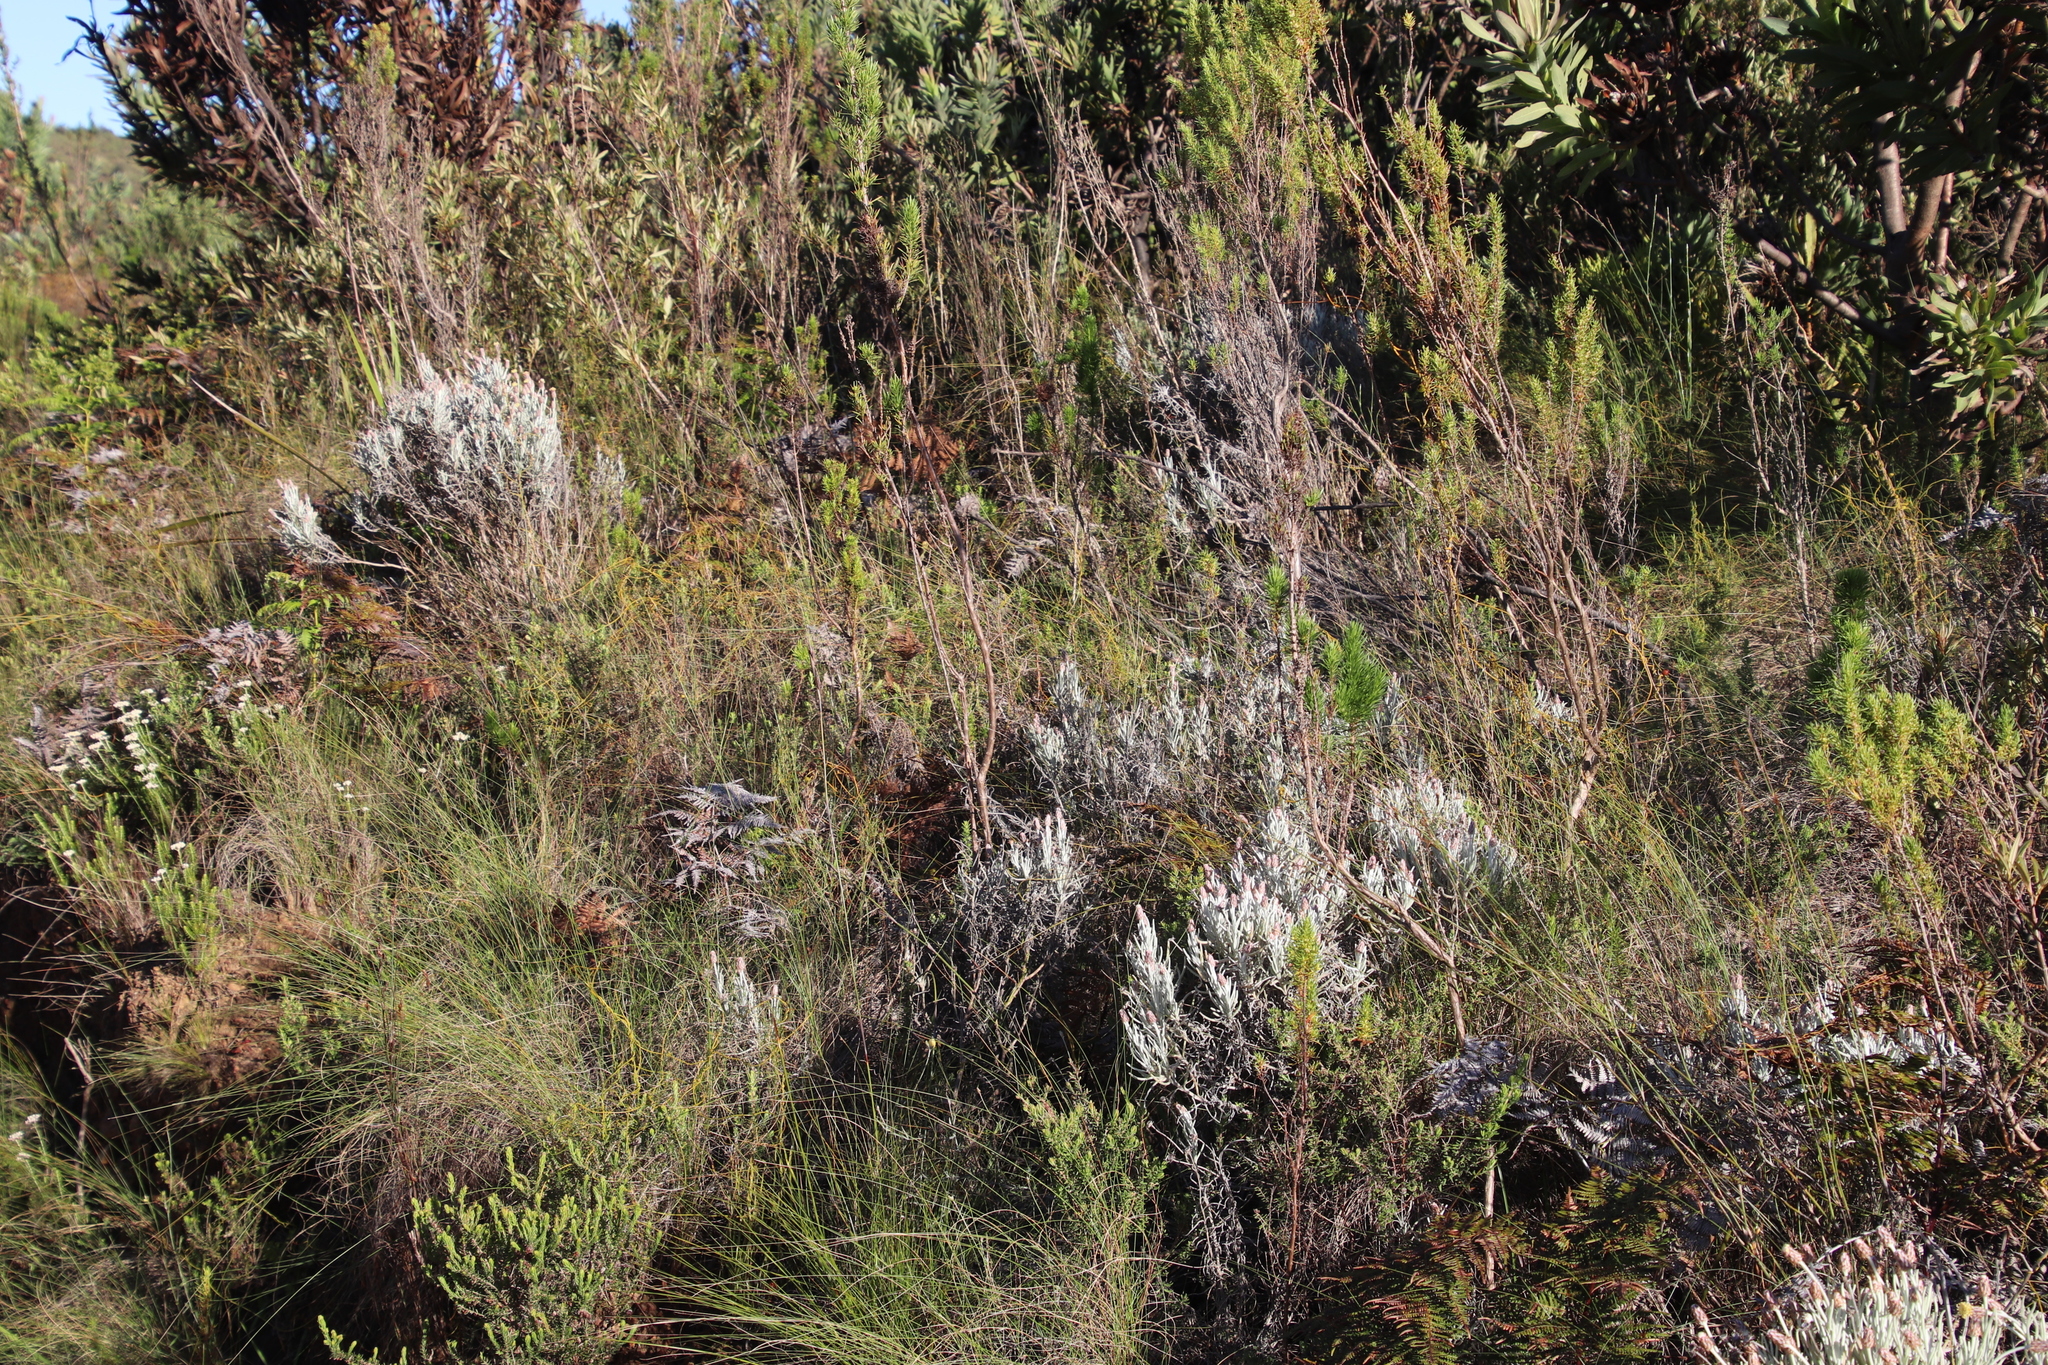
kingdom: Plantae
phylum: Tracheophyta
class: Magnoliopsida
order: Asterales
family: Asteraceae
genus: Syncarpha
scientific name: Syncarpha gnaphaloides
